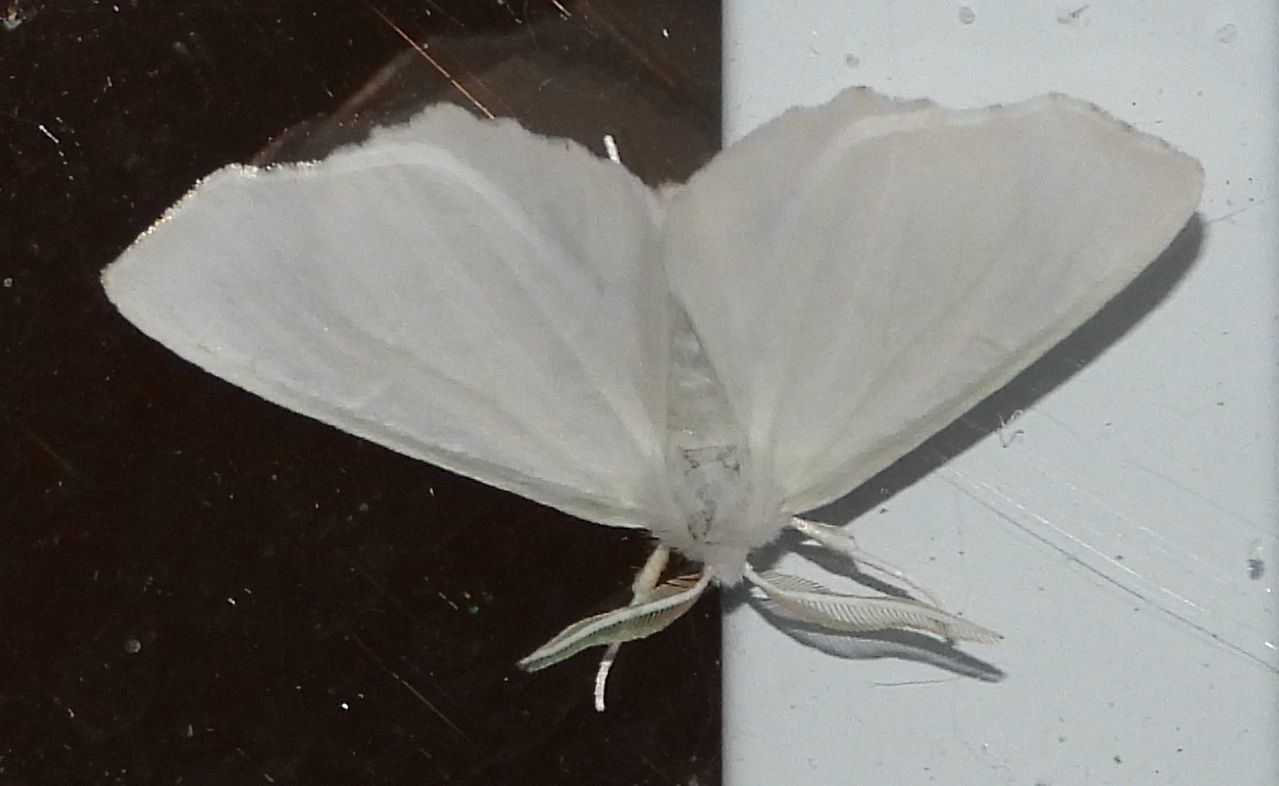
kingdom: Animalia
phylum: Arthropoda
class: Insecta
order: Lepidoptera
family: Geometridae
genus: Ennomos
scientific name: Ennomos subsignaria
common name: Elm spanworm
